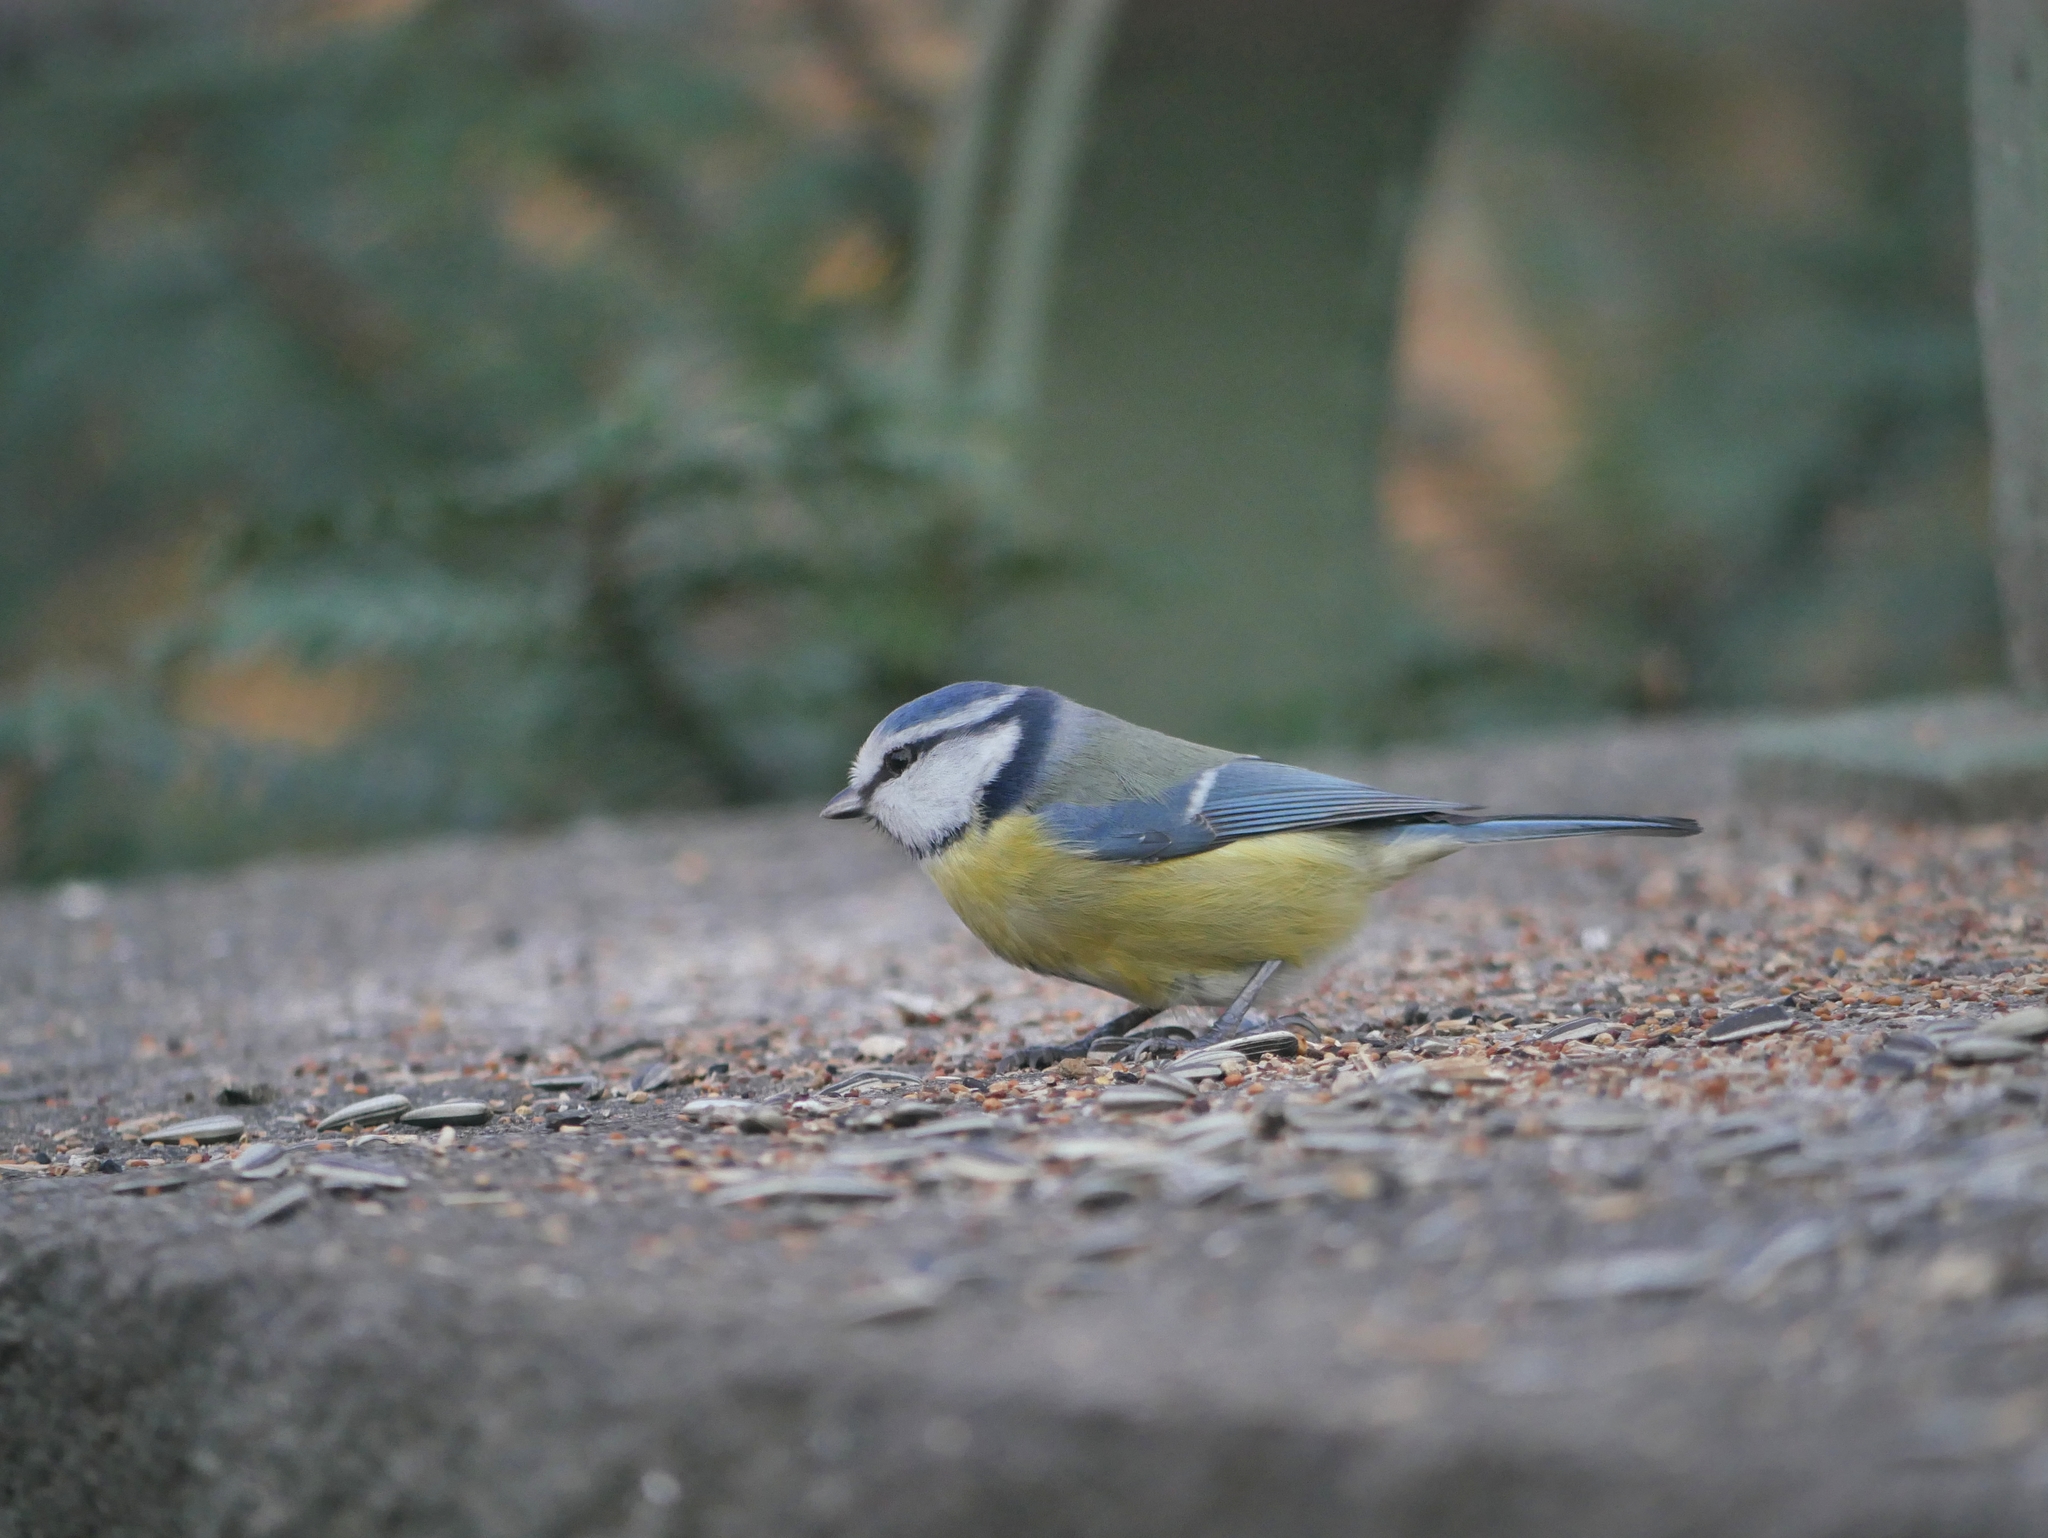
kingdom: Animalia
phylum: Chordata
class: Aves
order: Passeriformes
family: Paridae
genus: Cyanistes
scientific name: Cyanistes caeruleus
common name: Eurasian blue tit
